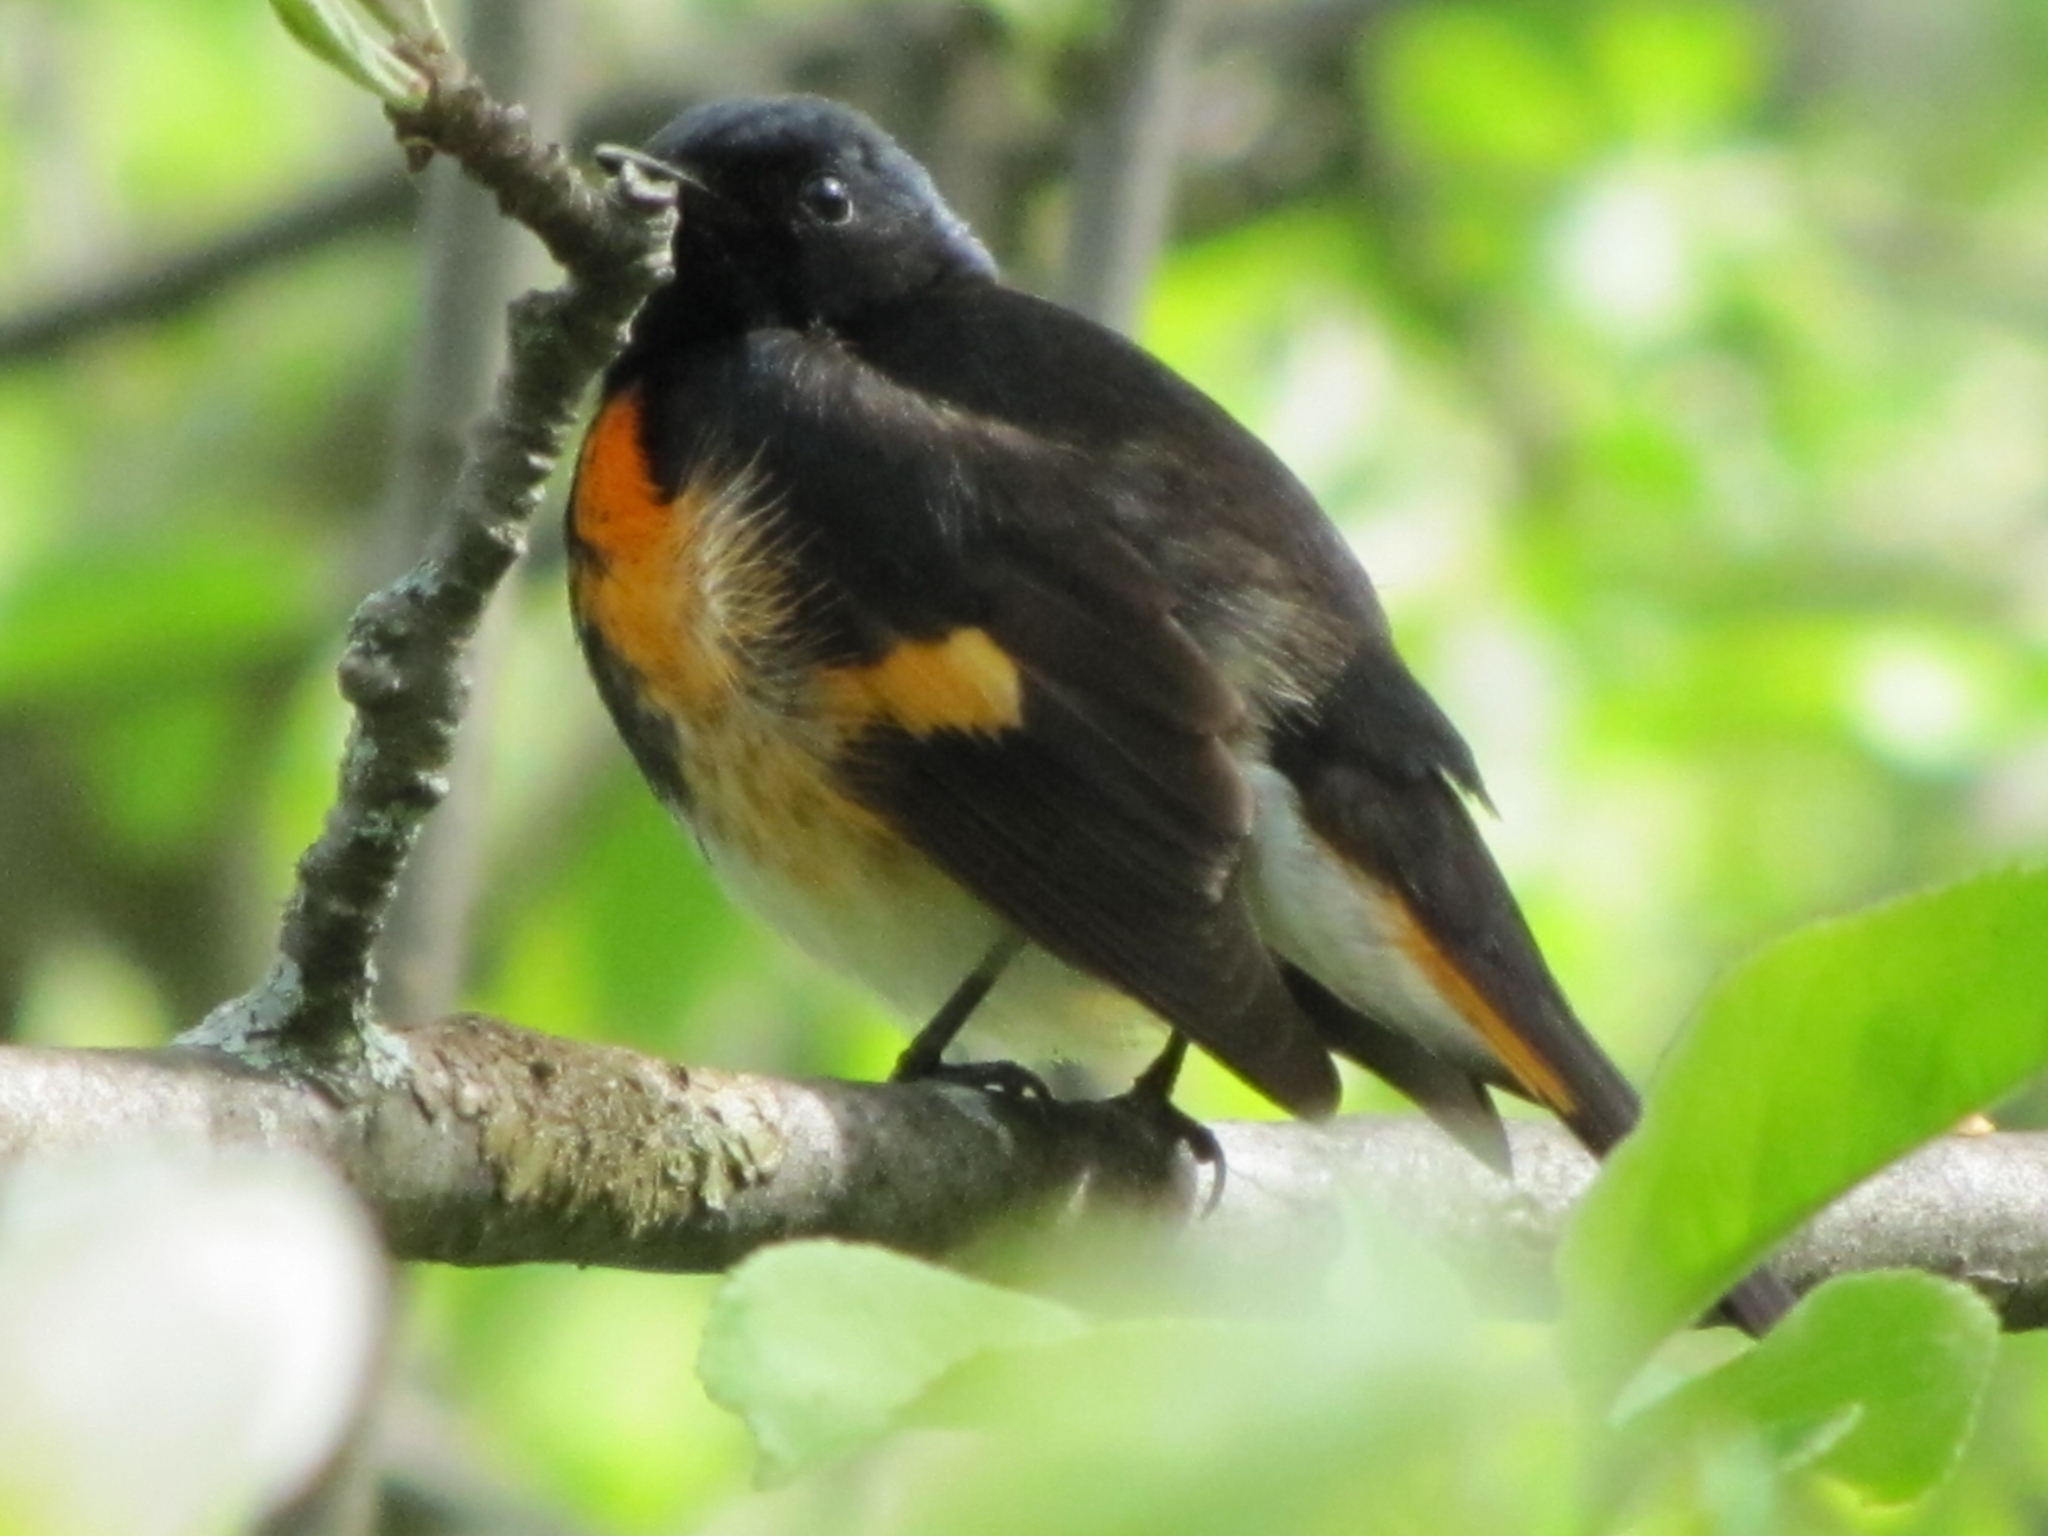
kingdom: Animalia
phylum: Chordata
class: Aves
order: Passeriformes
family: Parulidae
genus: Setophaga
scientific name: Setophaga ruticilla
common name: American redstart
